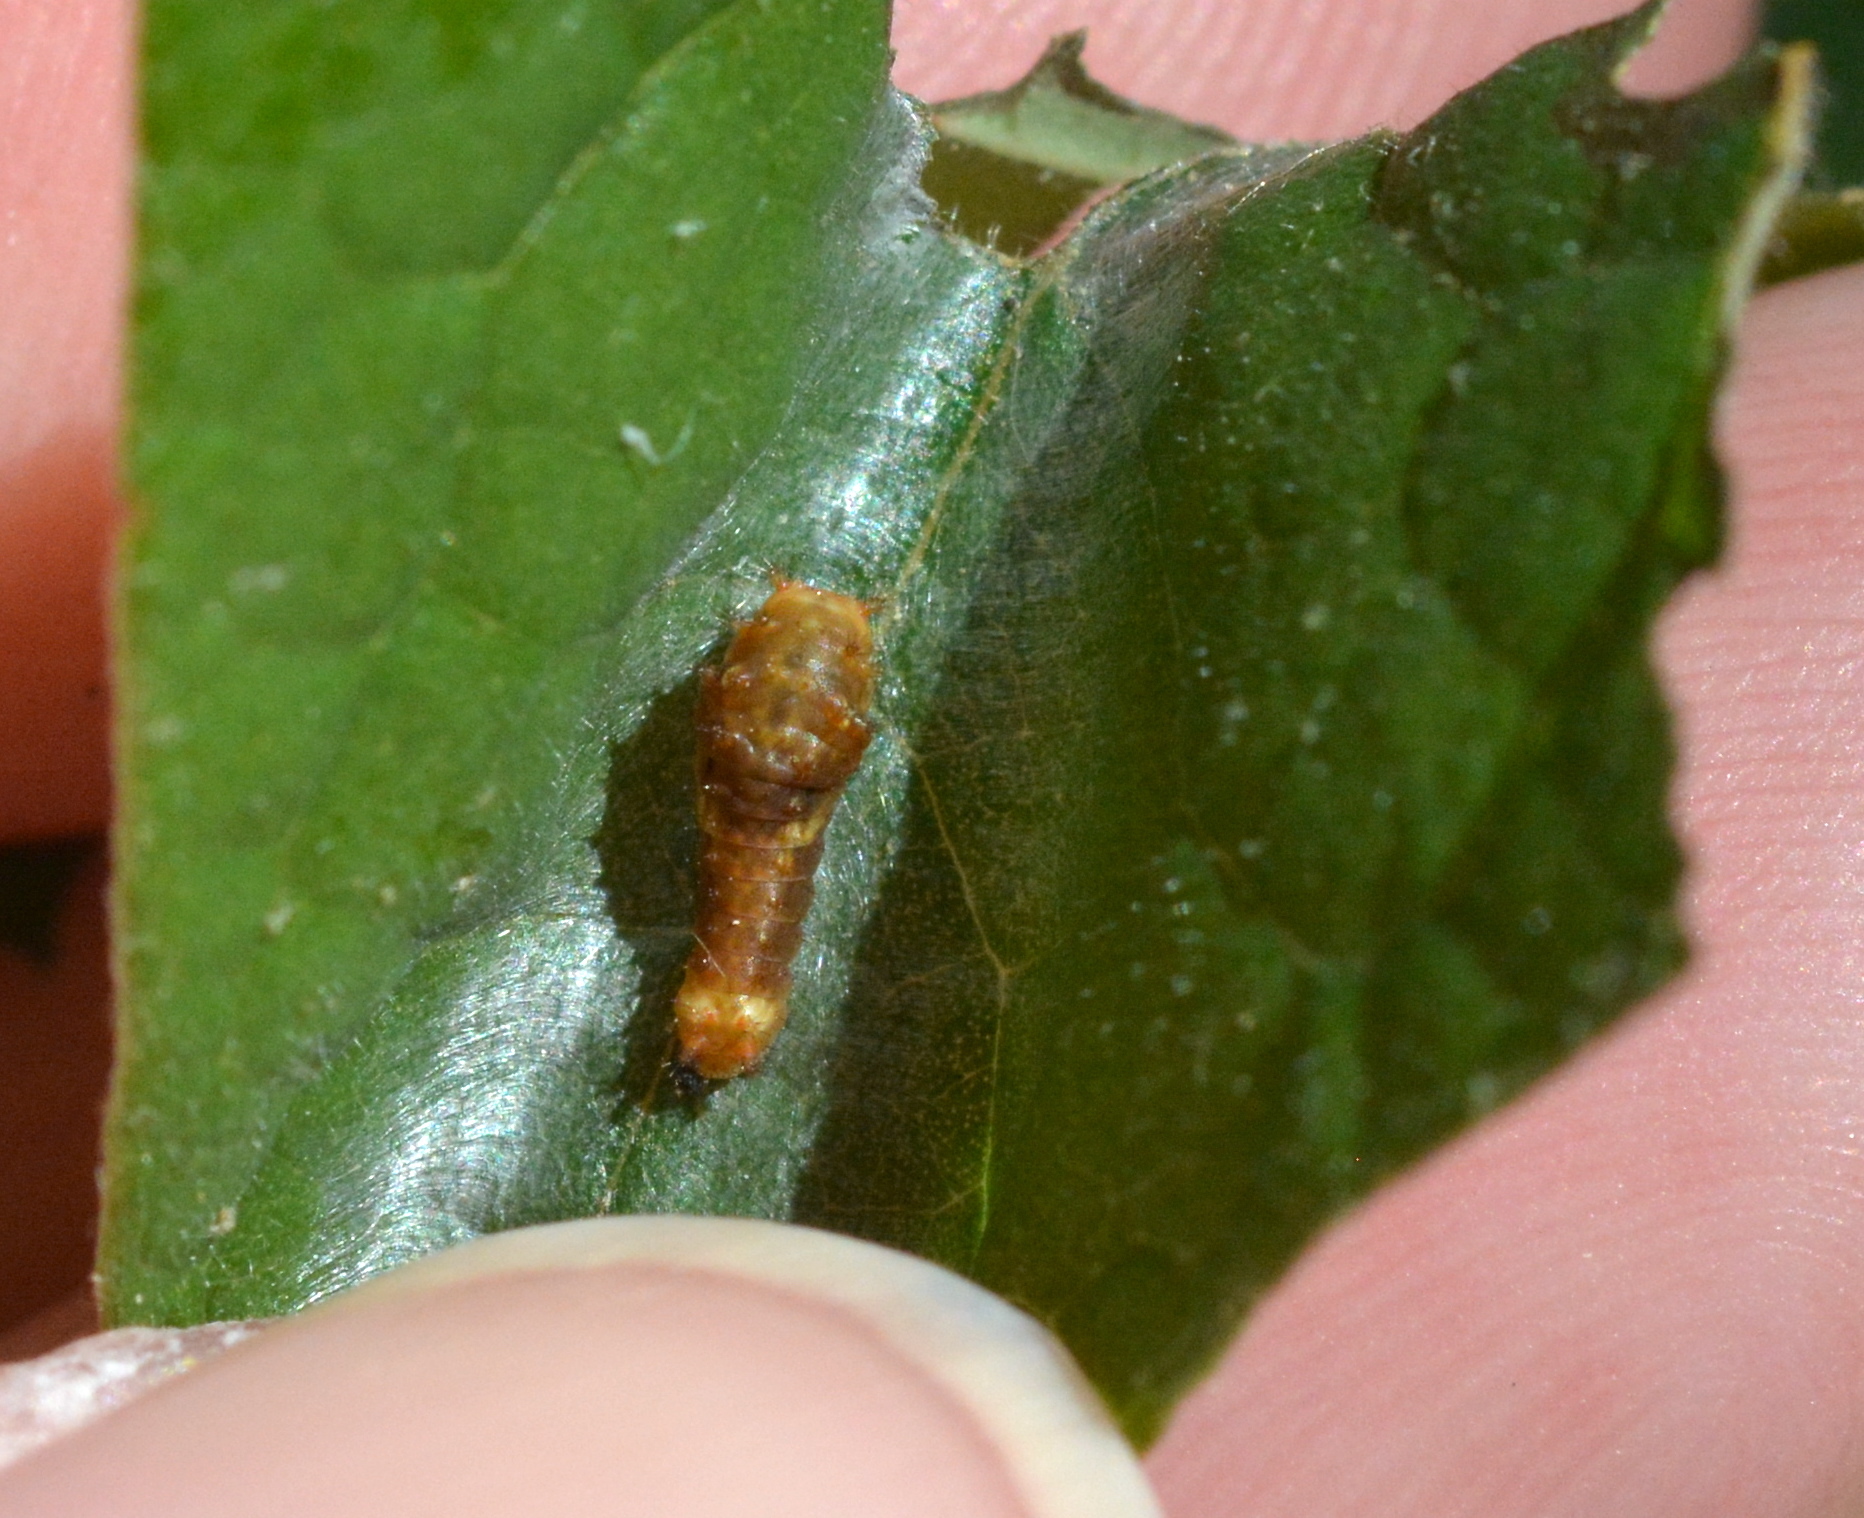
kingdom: Animalia
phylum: Arthropoda
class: Insecta
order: Lepidoptera
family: Papilionidae
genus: Papilio
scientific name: Papilio cresphontes
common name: Giant swallowtail
